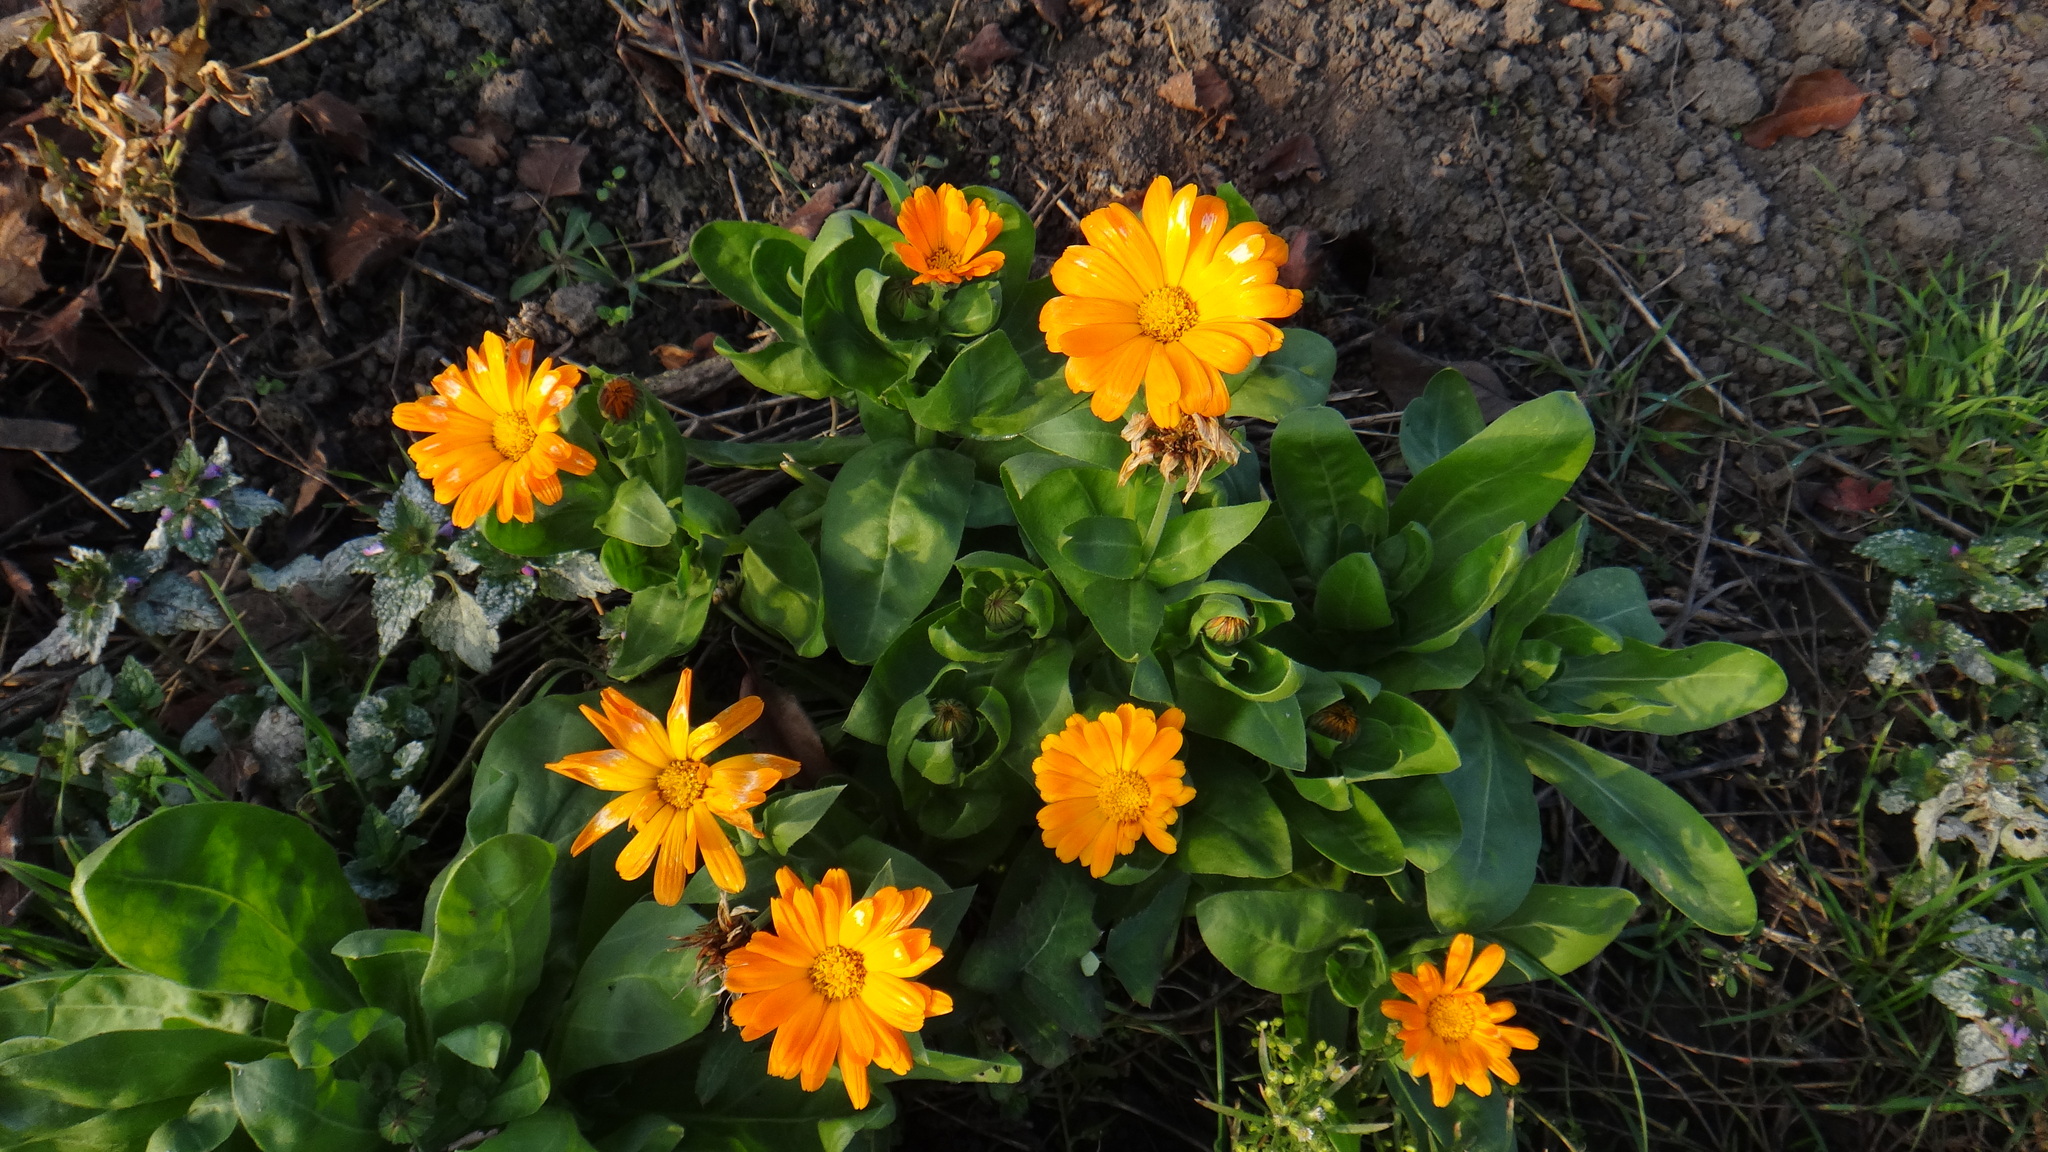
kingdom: Plantae
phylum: Tracheophyta
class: Magnoliopsida
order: Asterales
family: Asteraceae
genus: Calendula
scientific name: Calendula officinalis
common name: Pot marigold
